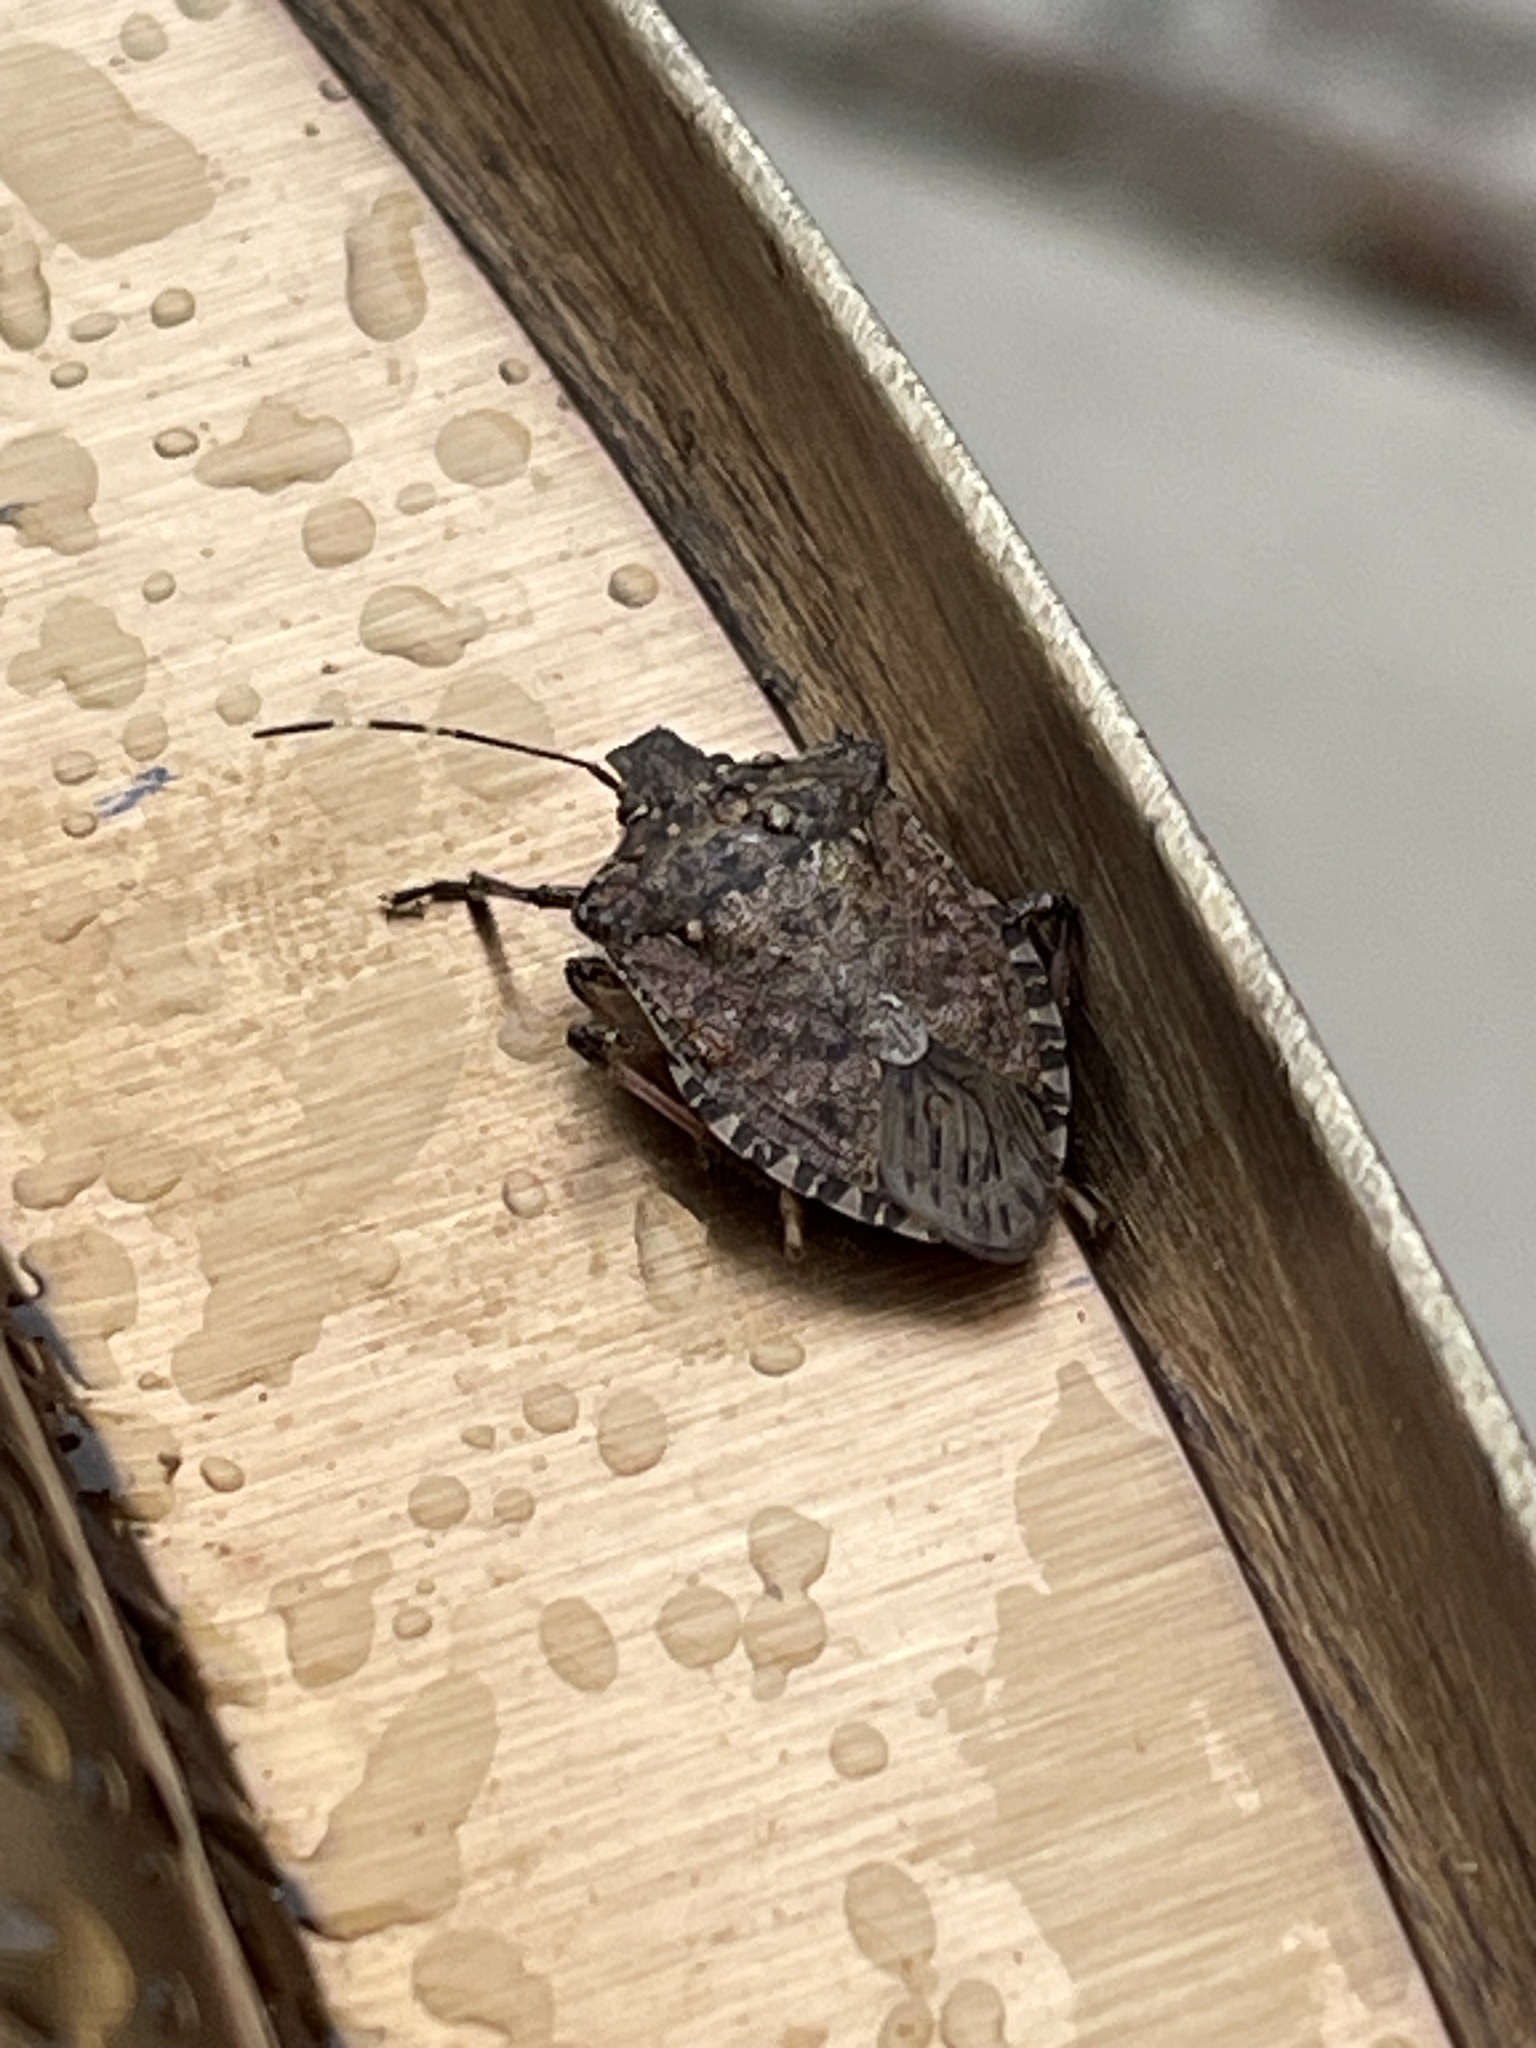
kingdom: Animalia
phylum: Arthropoda
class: Insecta
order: Hemiptera
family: Pentatomidae
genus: Halyomorpha
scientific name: Halyomorpha halys
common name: Brown marmorated stink bug
